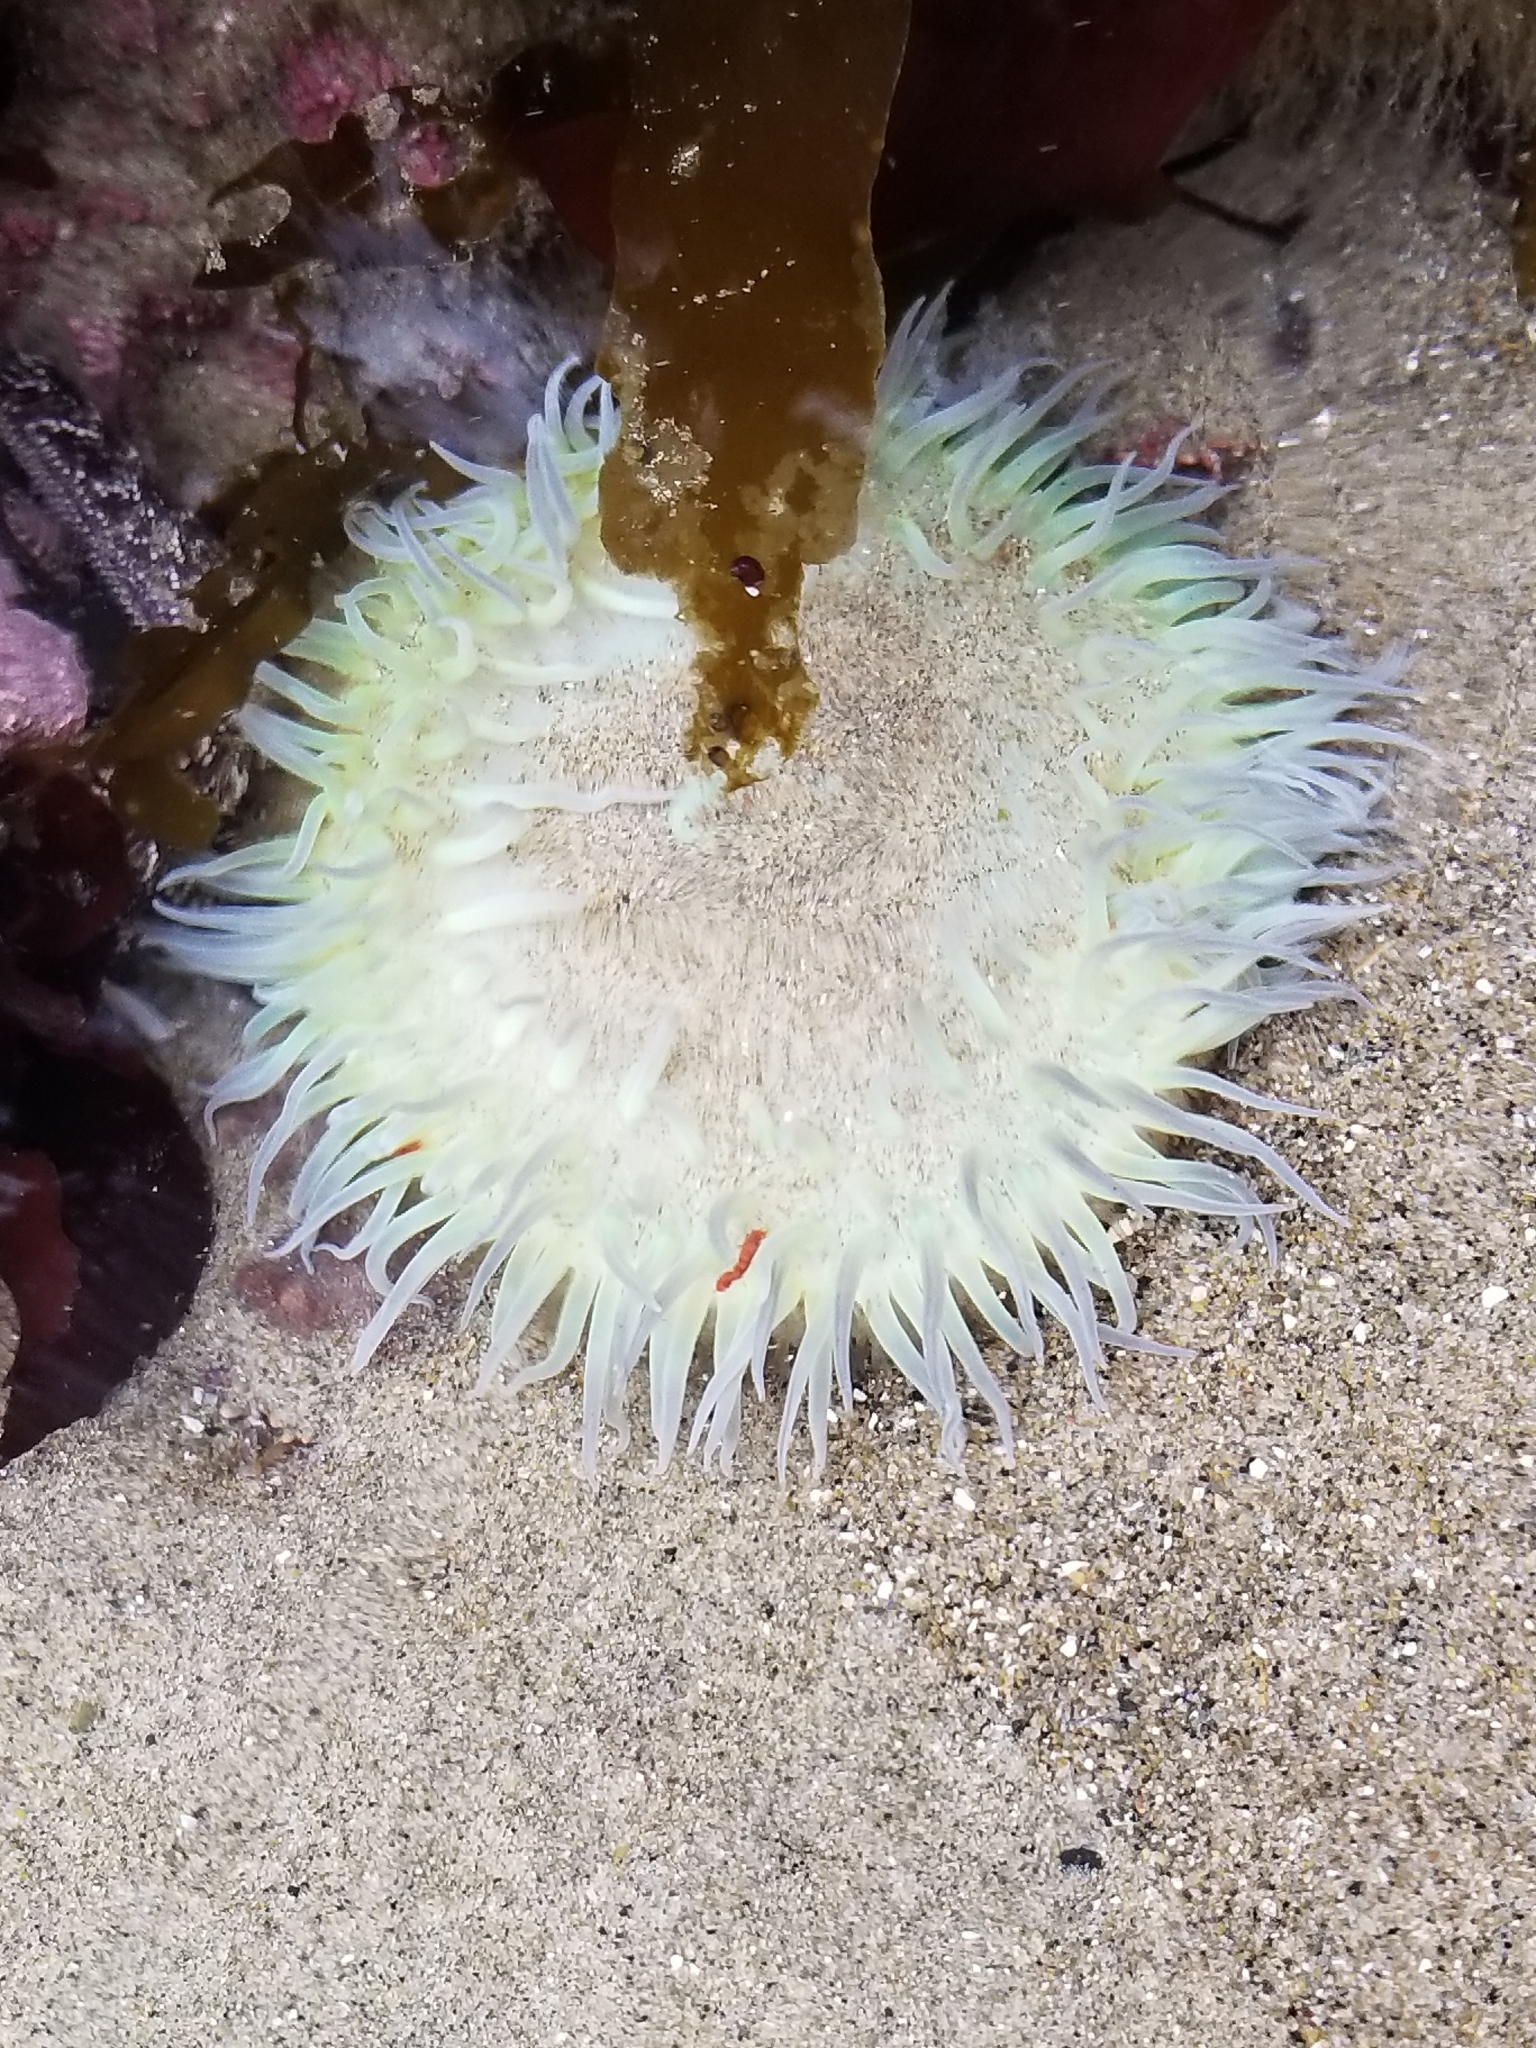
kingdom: Animalia
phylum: Cnidaria
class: Anthozoa
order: Actiniaria
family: Actiniidae
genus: Anthopleura
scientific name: Anthopleura xanthogrammica
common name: Giant green anemone
